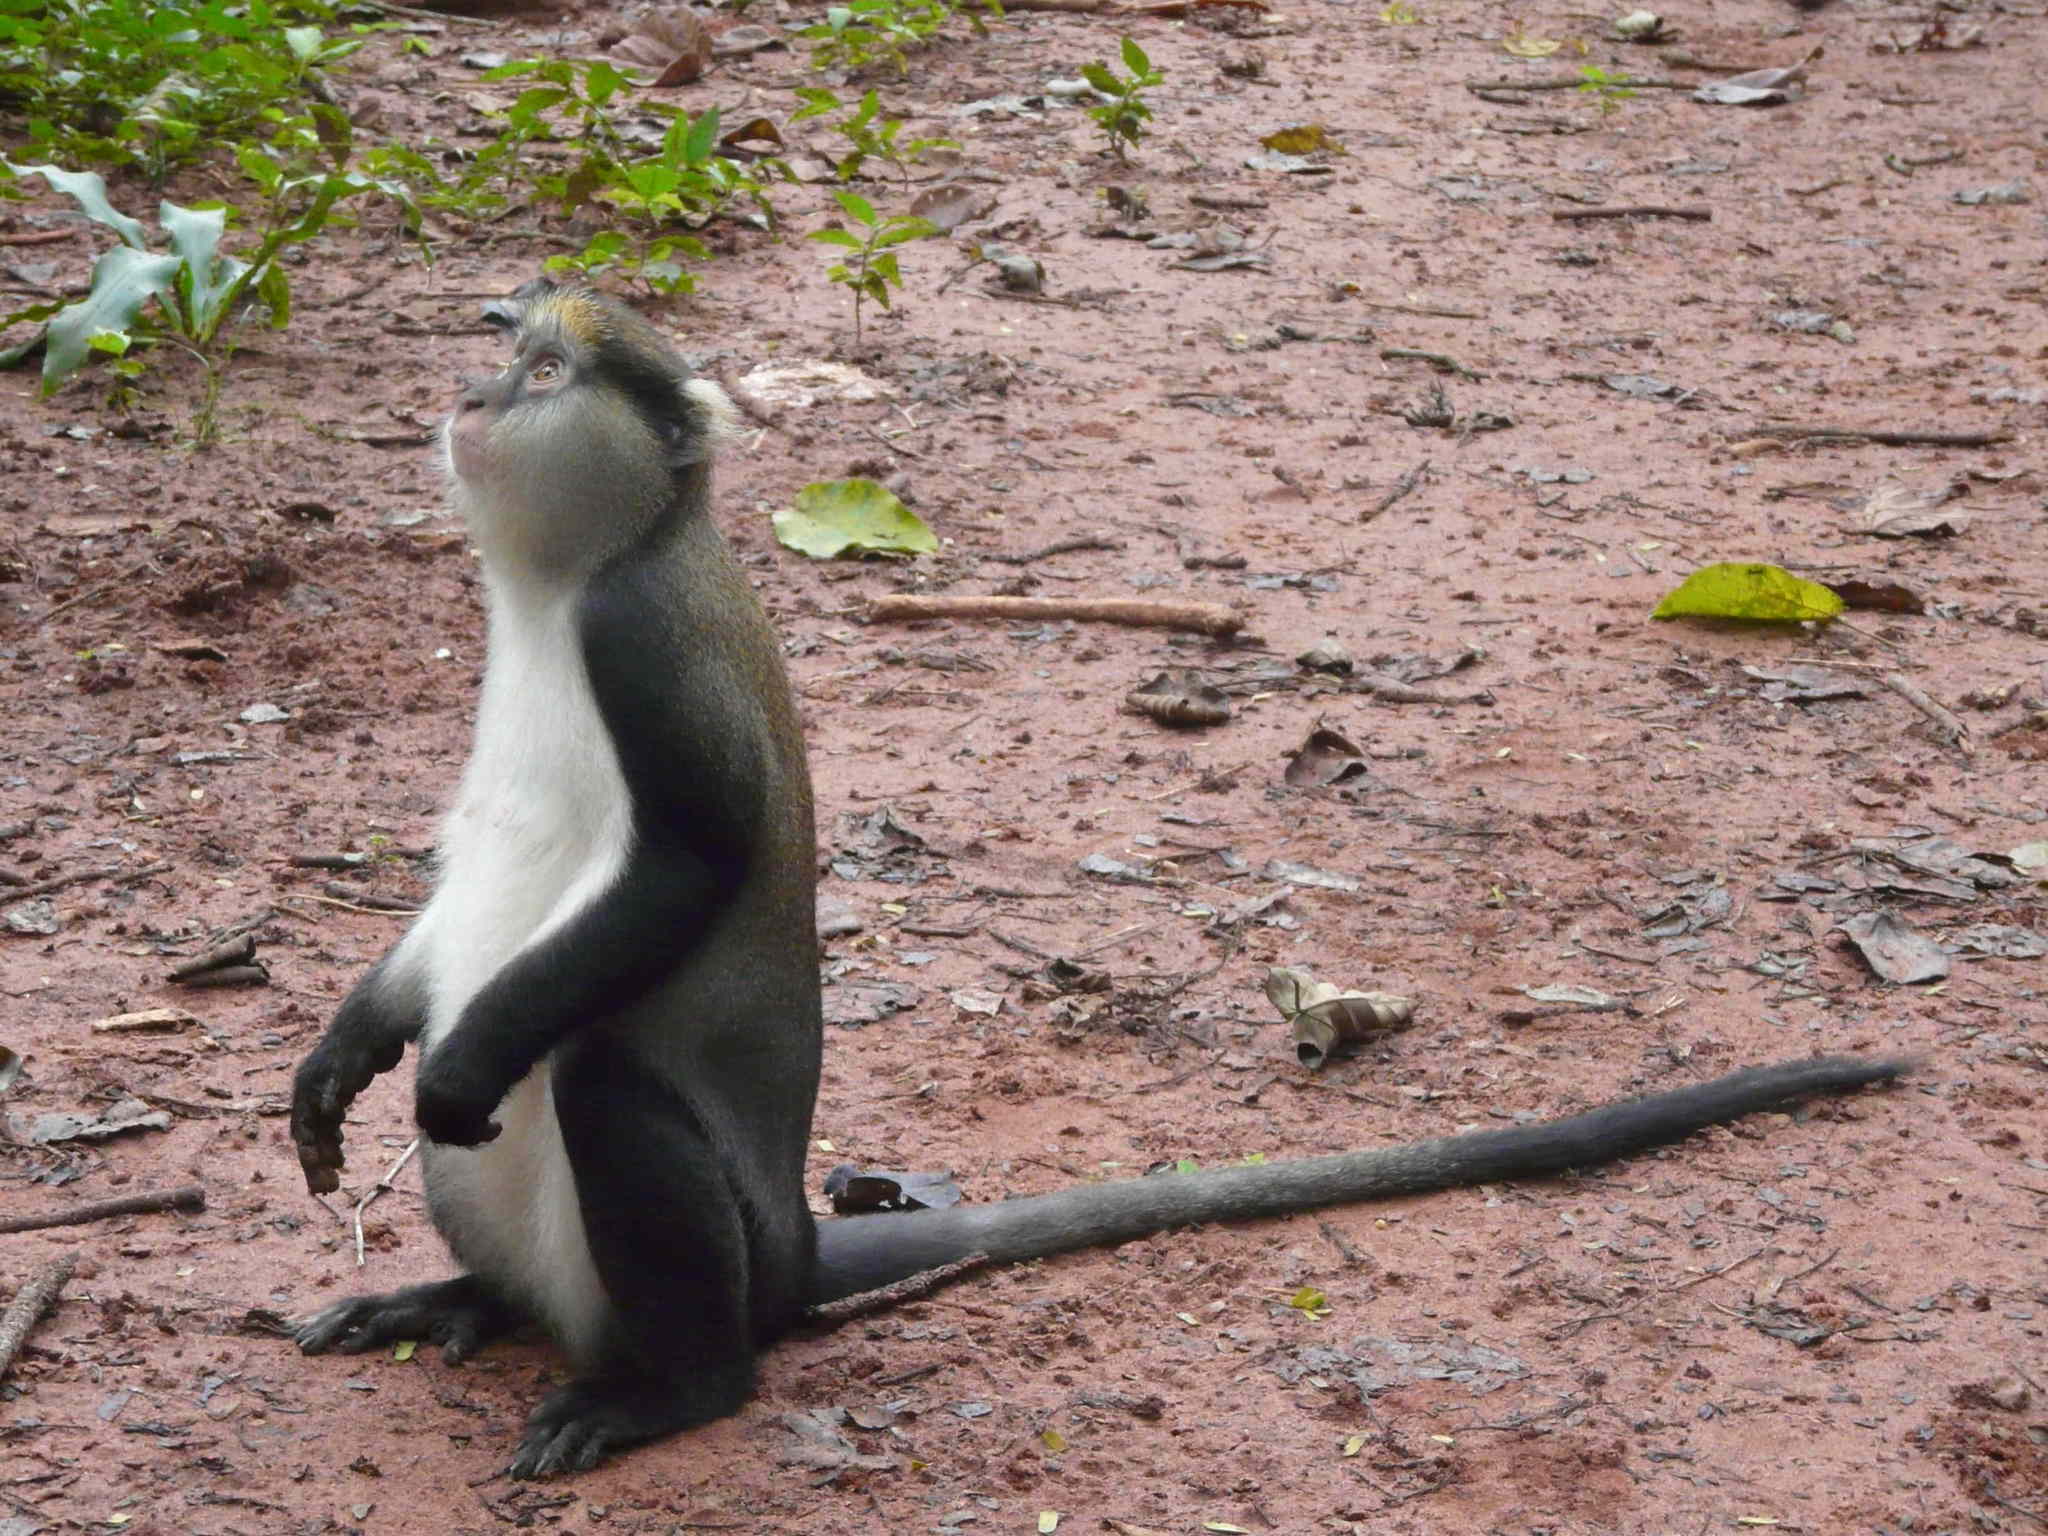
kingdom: Animalia
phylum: Chordata
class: Mammalia
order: Primates
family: Cercopithecidae
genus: Cercopithecus
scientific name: Cercopithecus lowei
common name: Lowe's monkey
